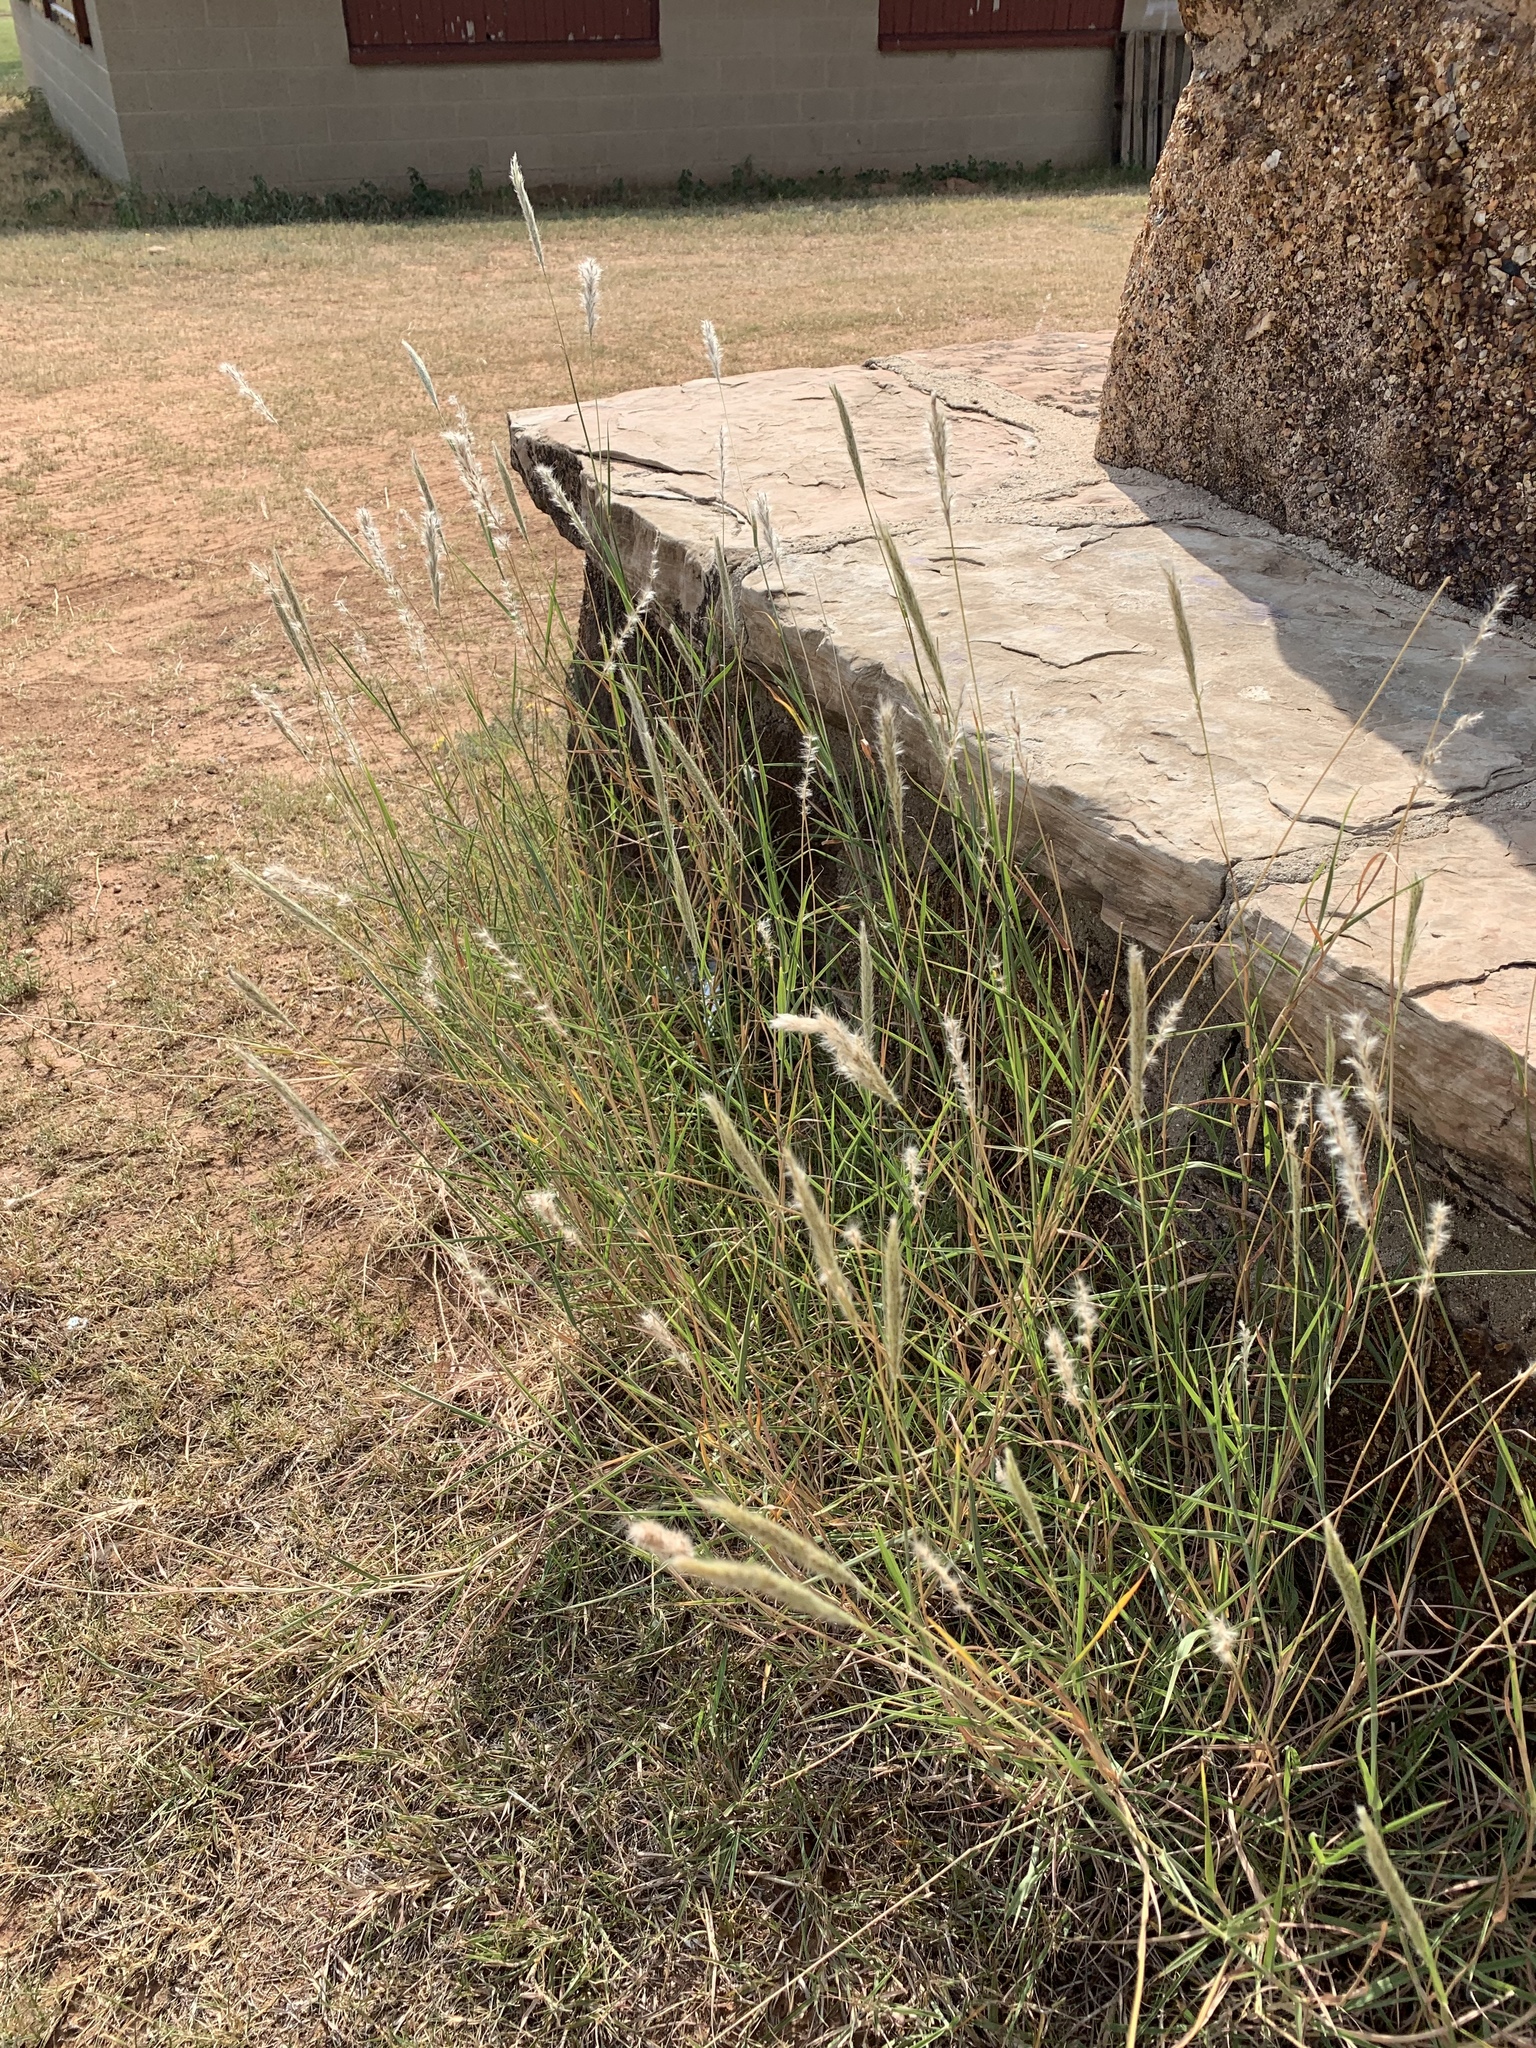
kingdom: Plantae
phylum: Tracheophyta
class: Liliopsida
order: Poales
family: Poaceae
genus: Bothriochloa
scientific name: Bothriochloa torreyana
